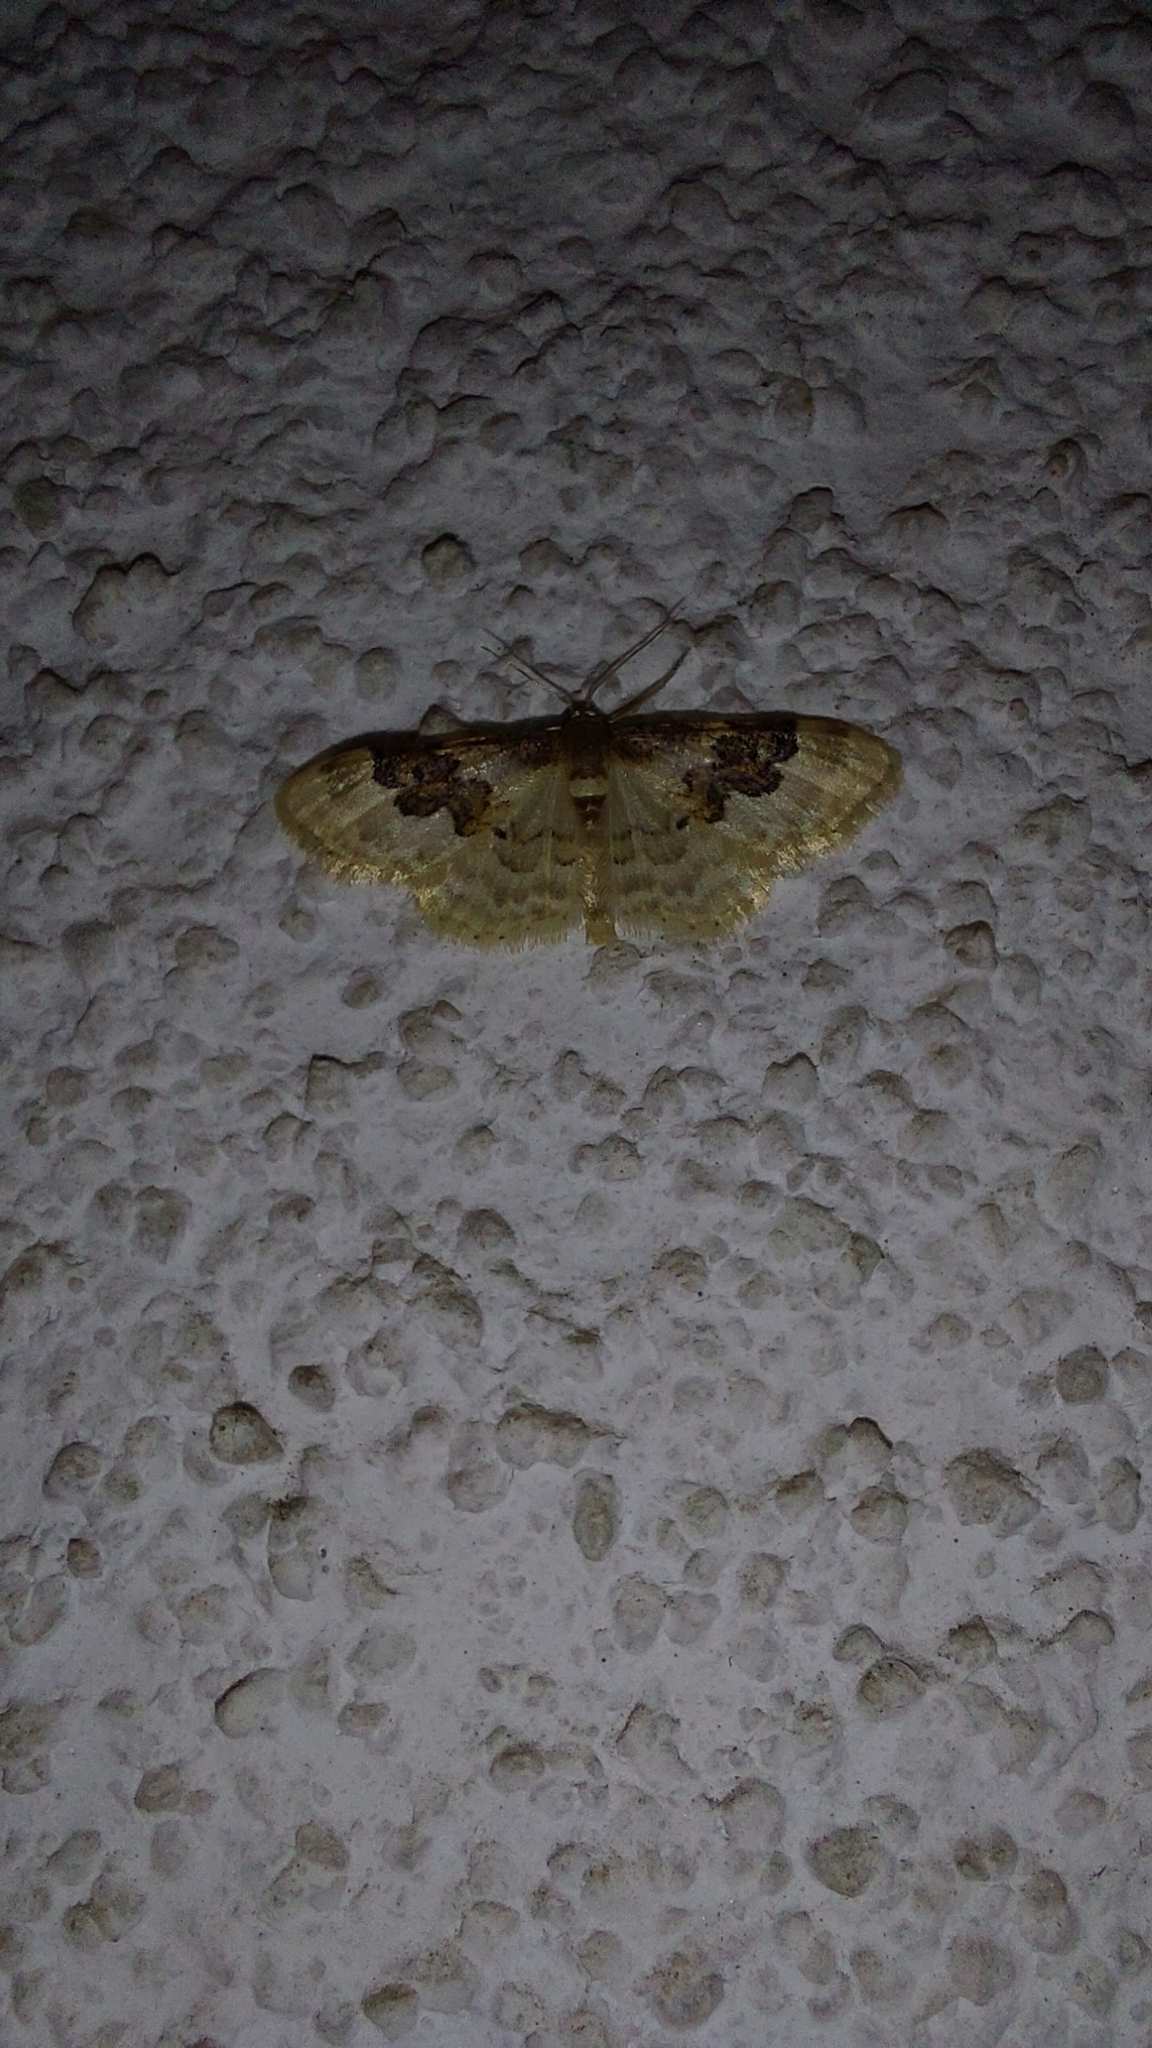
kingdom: Animalia
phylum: Arthropoda
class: Insecta
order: Lepidoptera
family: Geometridae
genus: Idaea
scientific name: Idaea rusticata
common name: Least carpet
